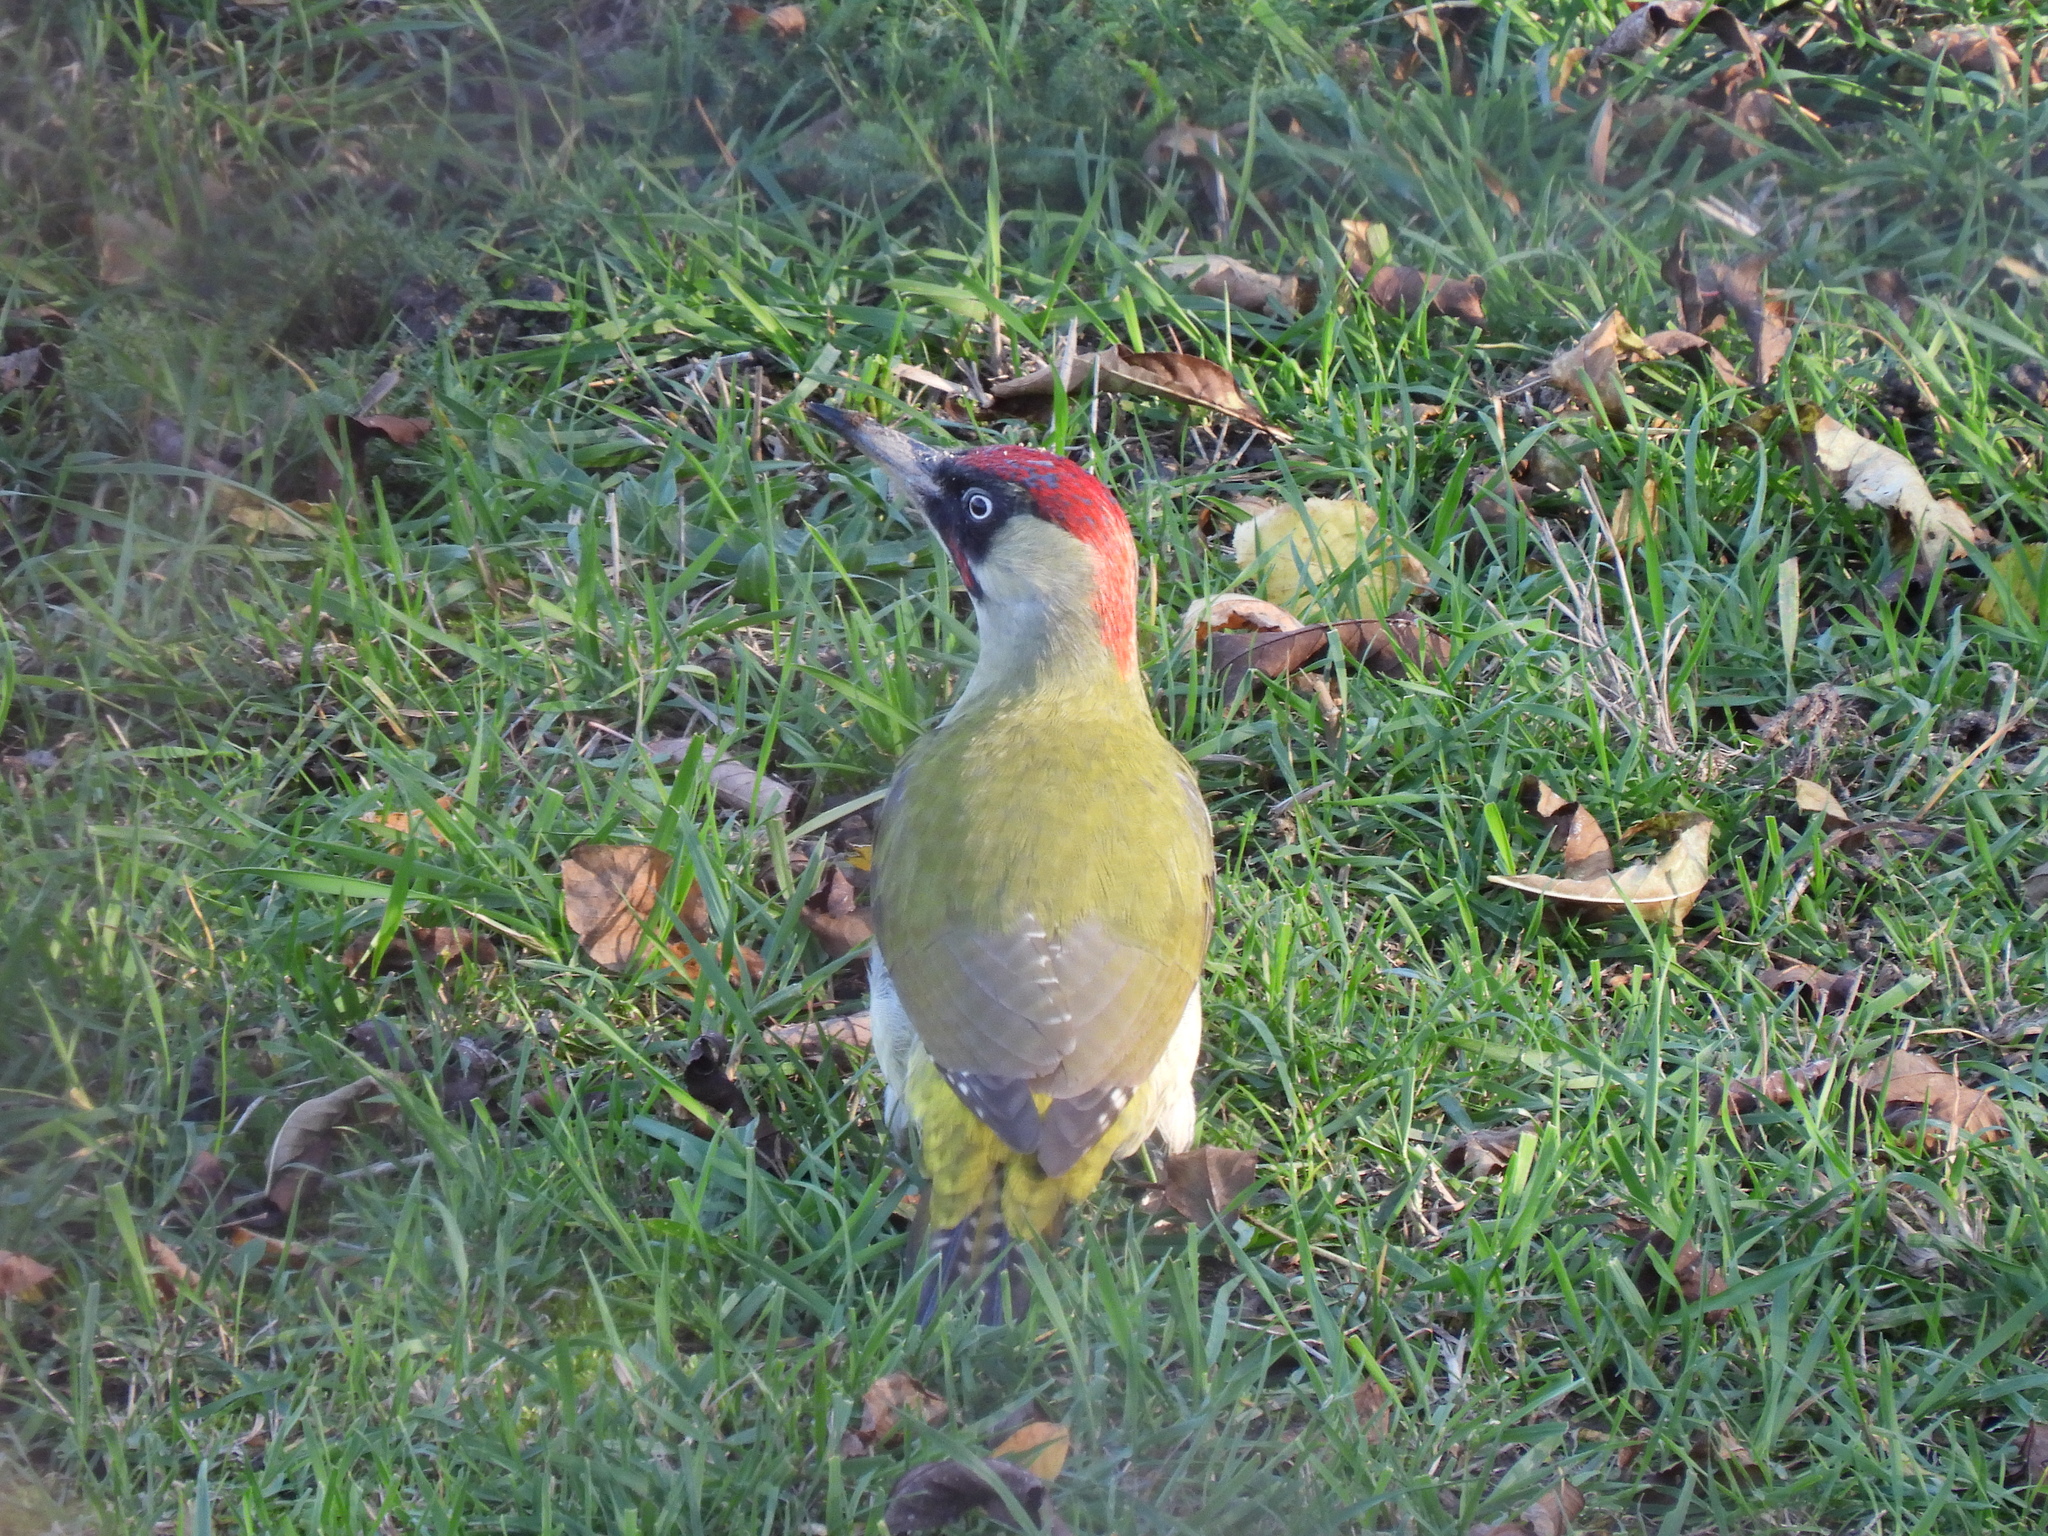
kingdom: Animalia
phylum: Chordata
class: Aves
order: Piciformes
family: Picidae
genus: Picus
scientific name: Picus viridis
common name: European green woodpecker
